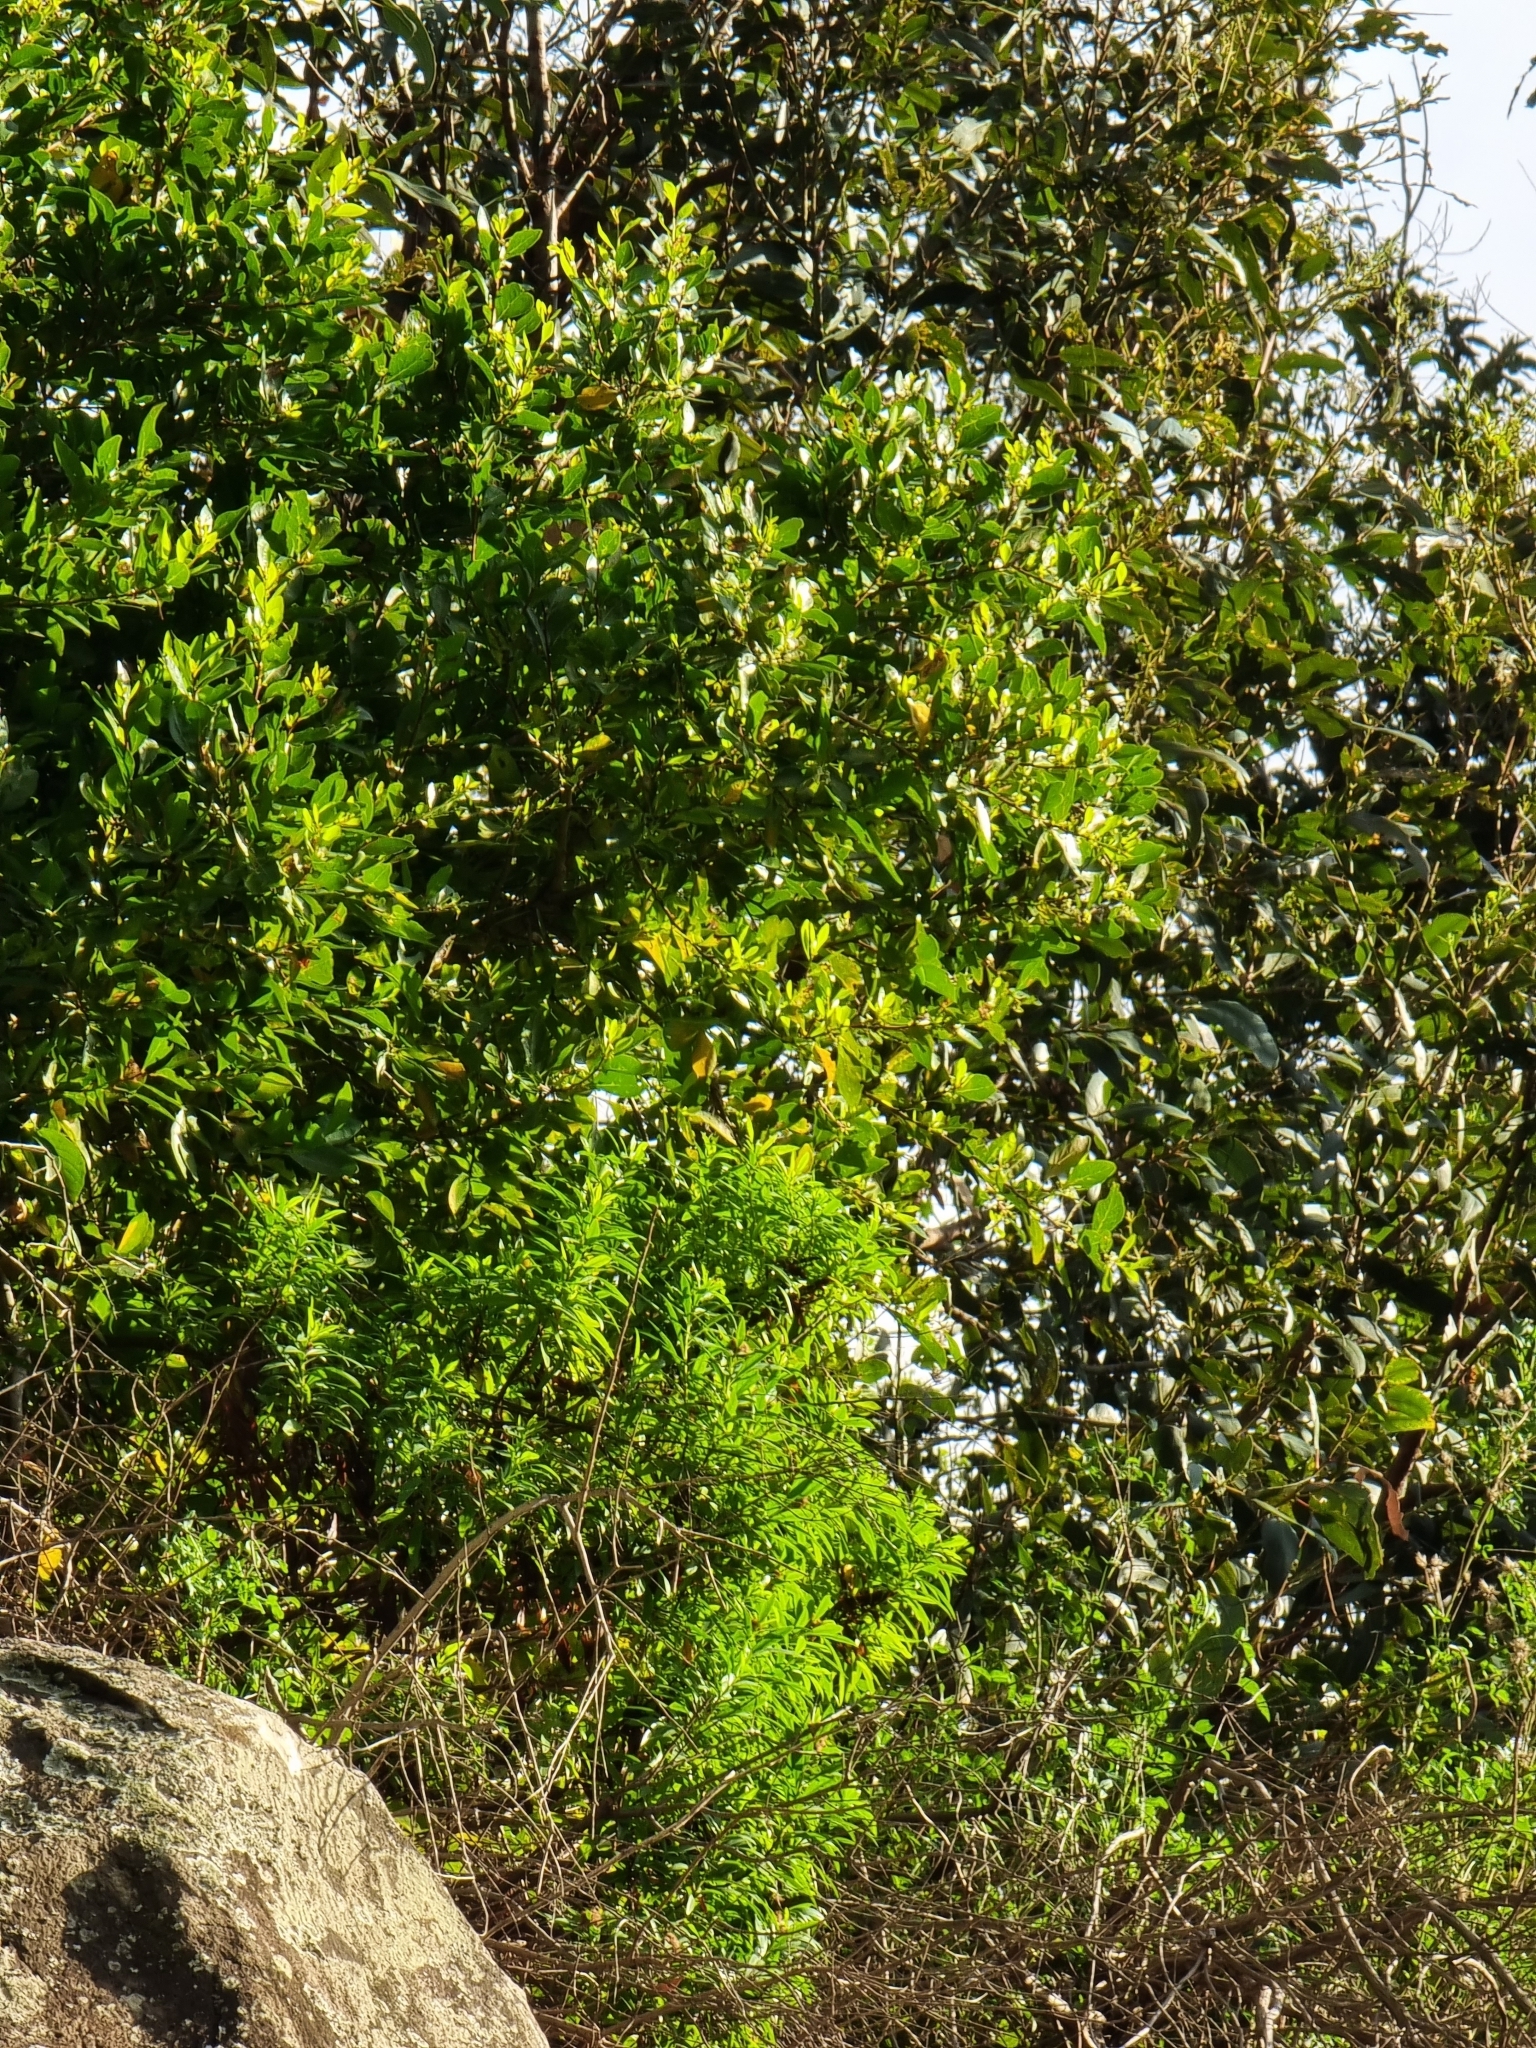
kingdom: Plantae
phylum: Tracheophyta
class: Magnoliopsida
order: Celastrales
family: Celastraceae
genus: Gymnosporia
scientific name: Gymnosporia dryandri
